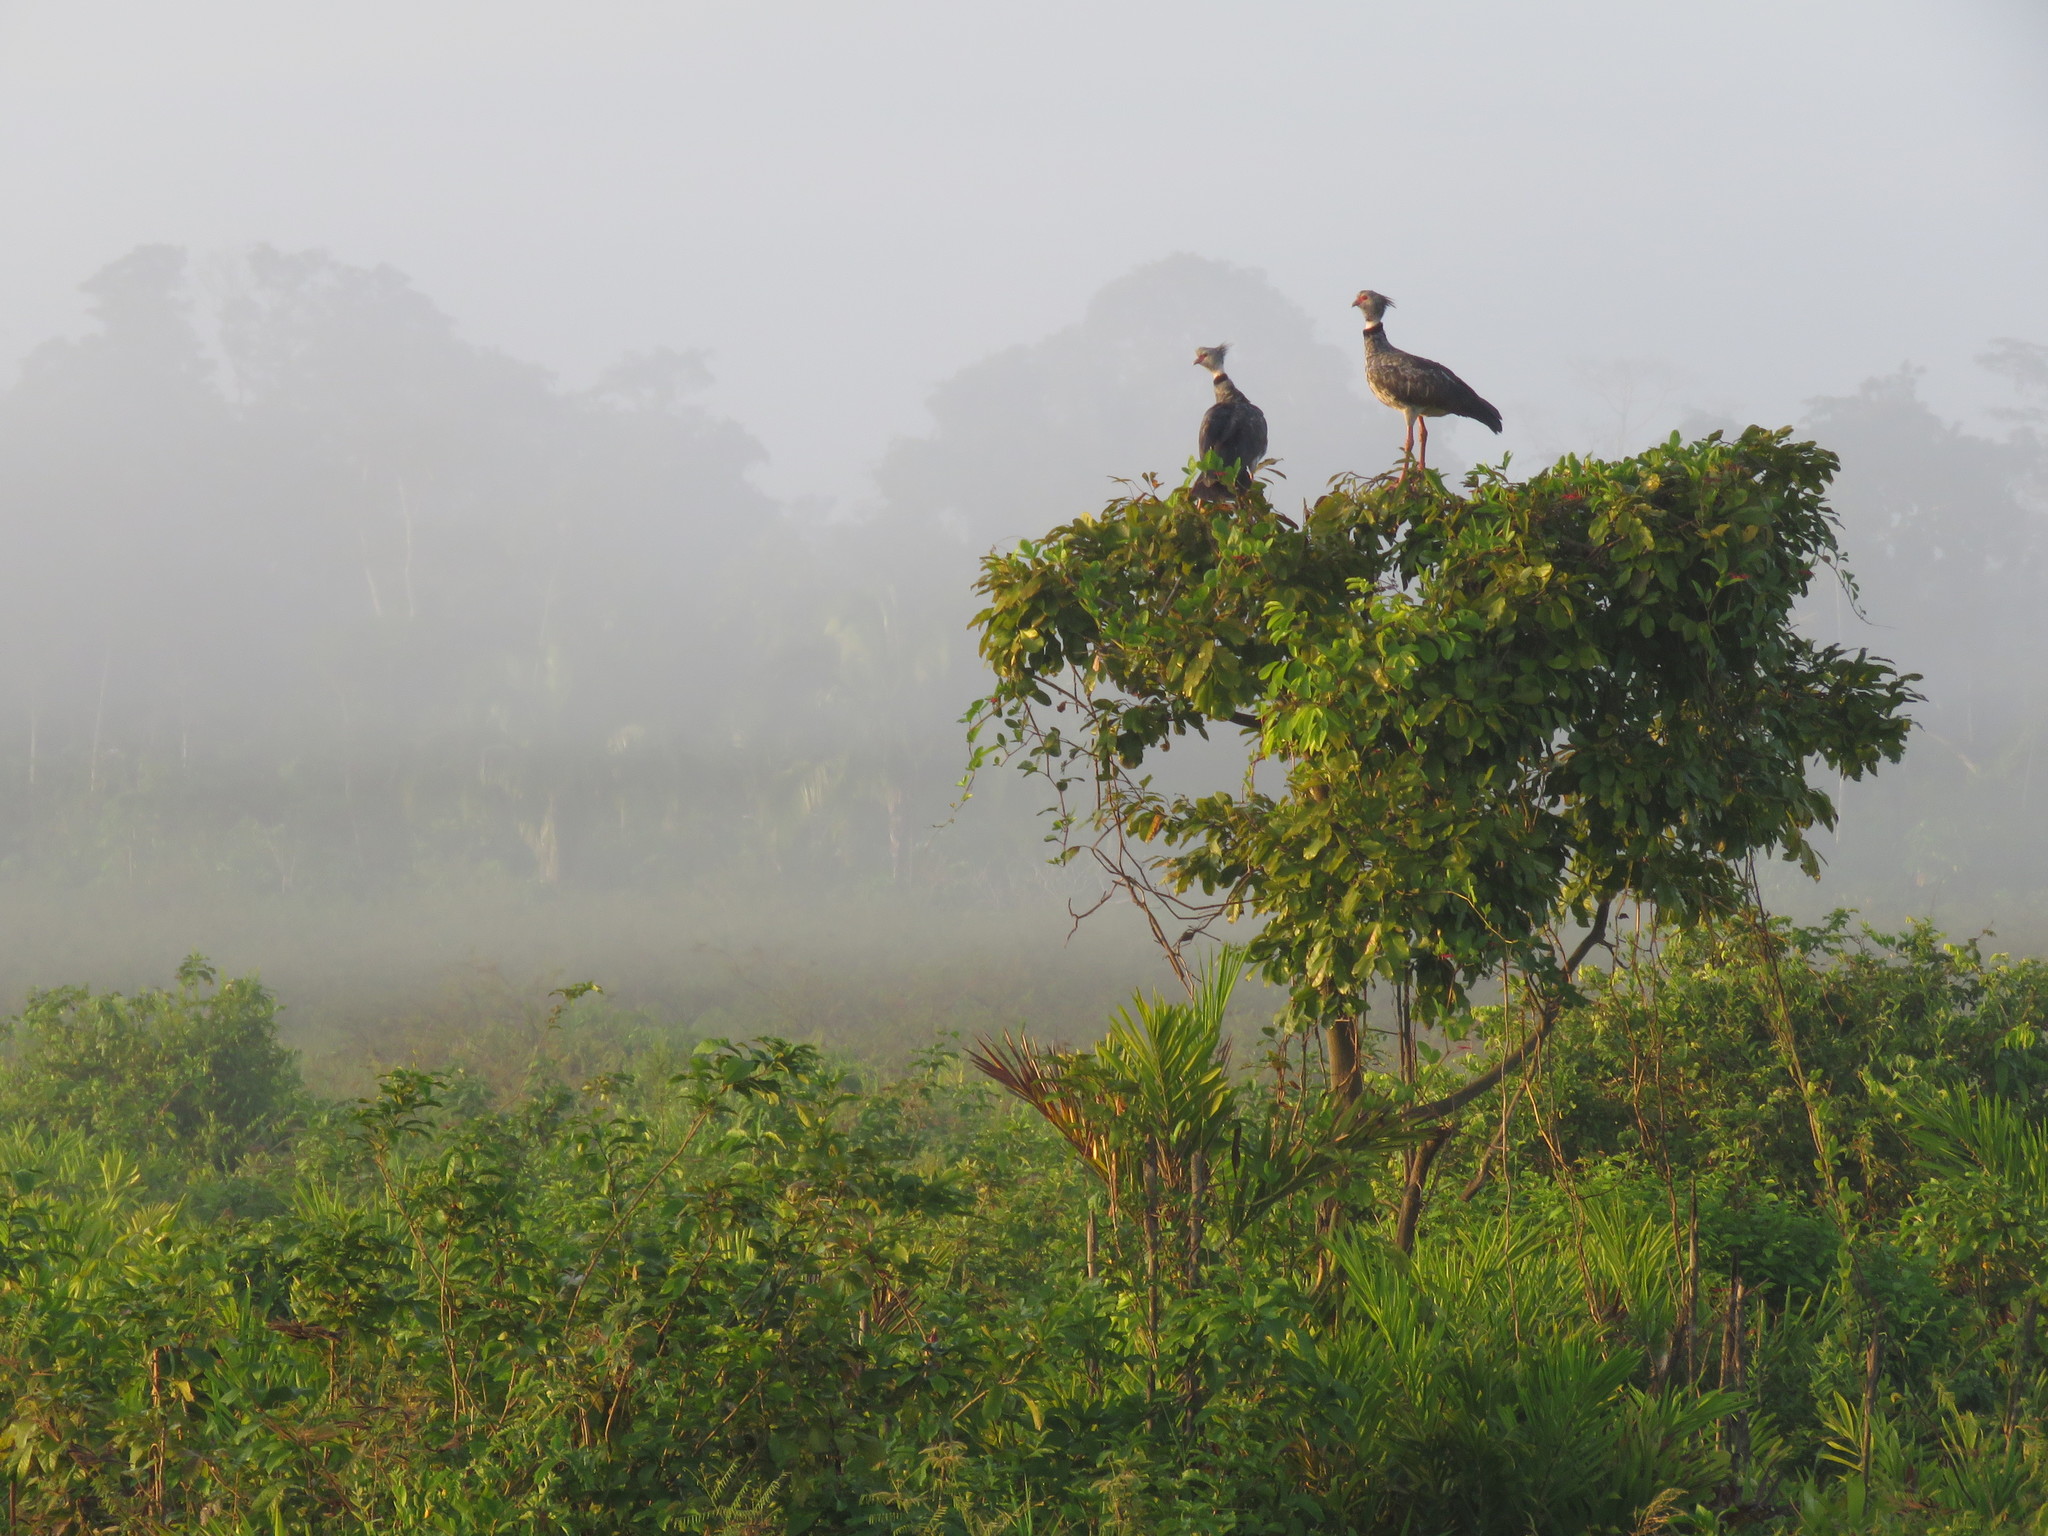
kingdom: Animalia
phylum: Chordata
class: Aves
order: Anseriformes
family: Anhimidae
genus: Chauna
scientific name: Chauna torquata
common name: Southern screamer
